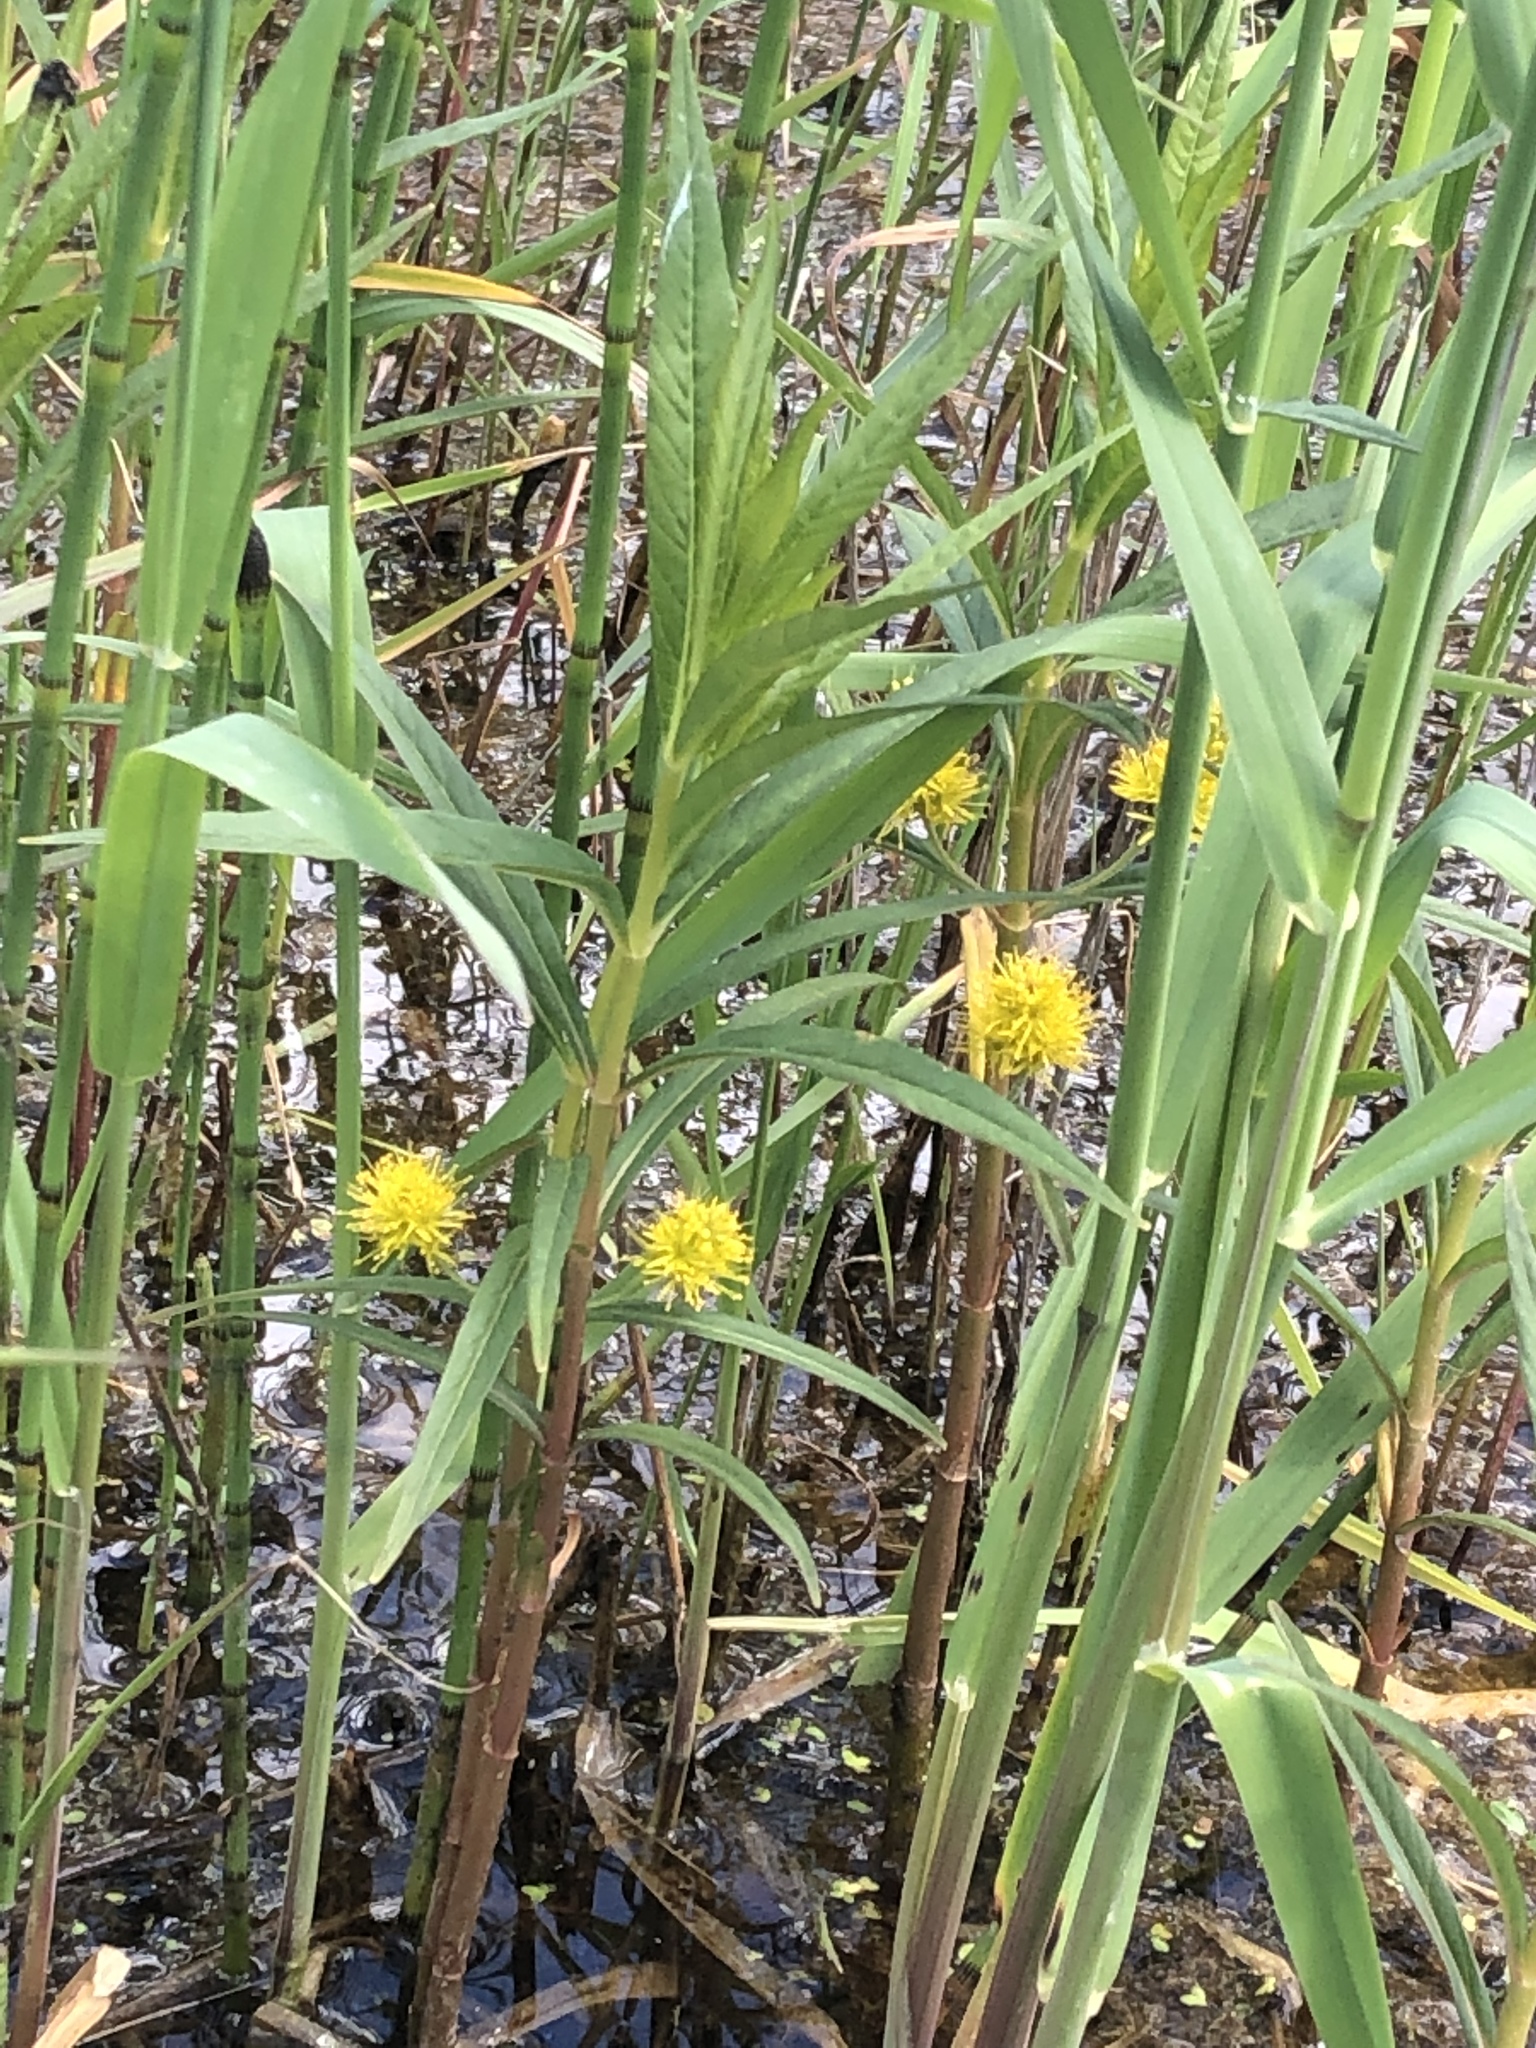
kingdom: Plantae
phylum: Tracheophyta
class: Magnoliopsida
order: Ericales
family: Primulaceae
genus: Lysimachia
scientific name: Lysimachia thyrsiflora
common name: Tufted loosestrife
